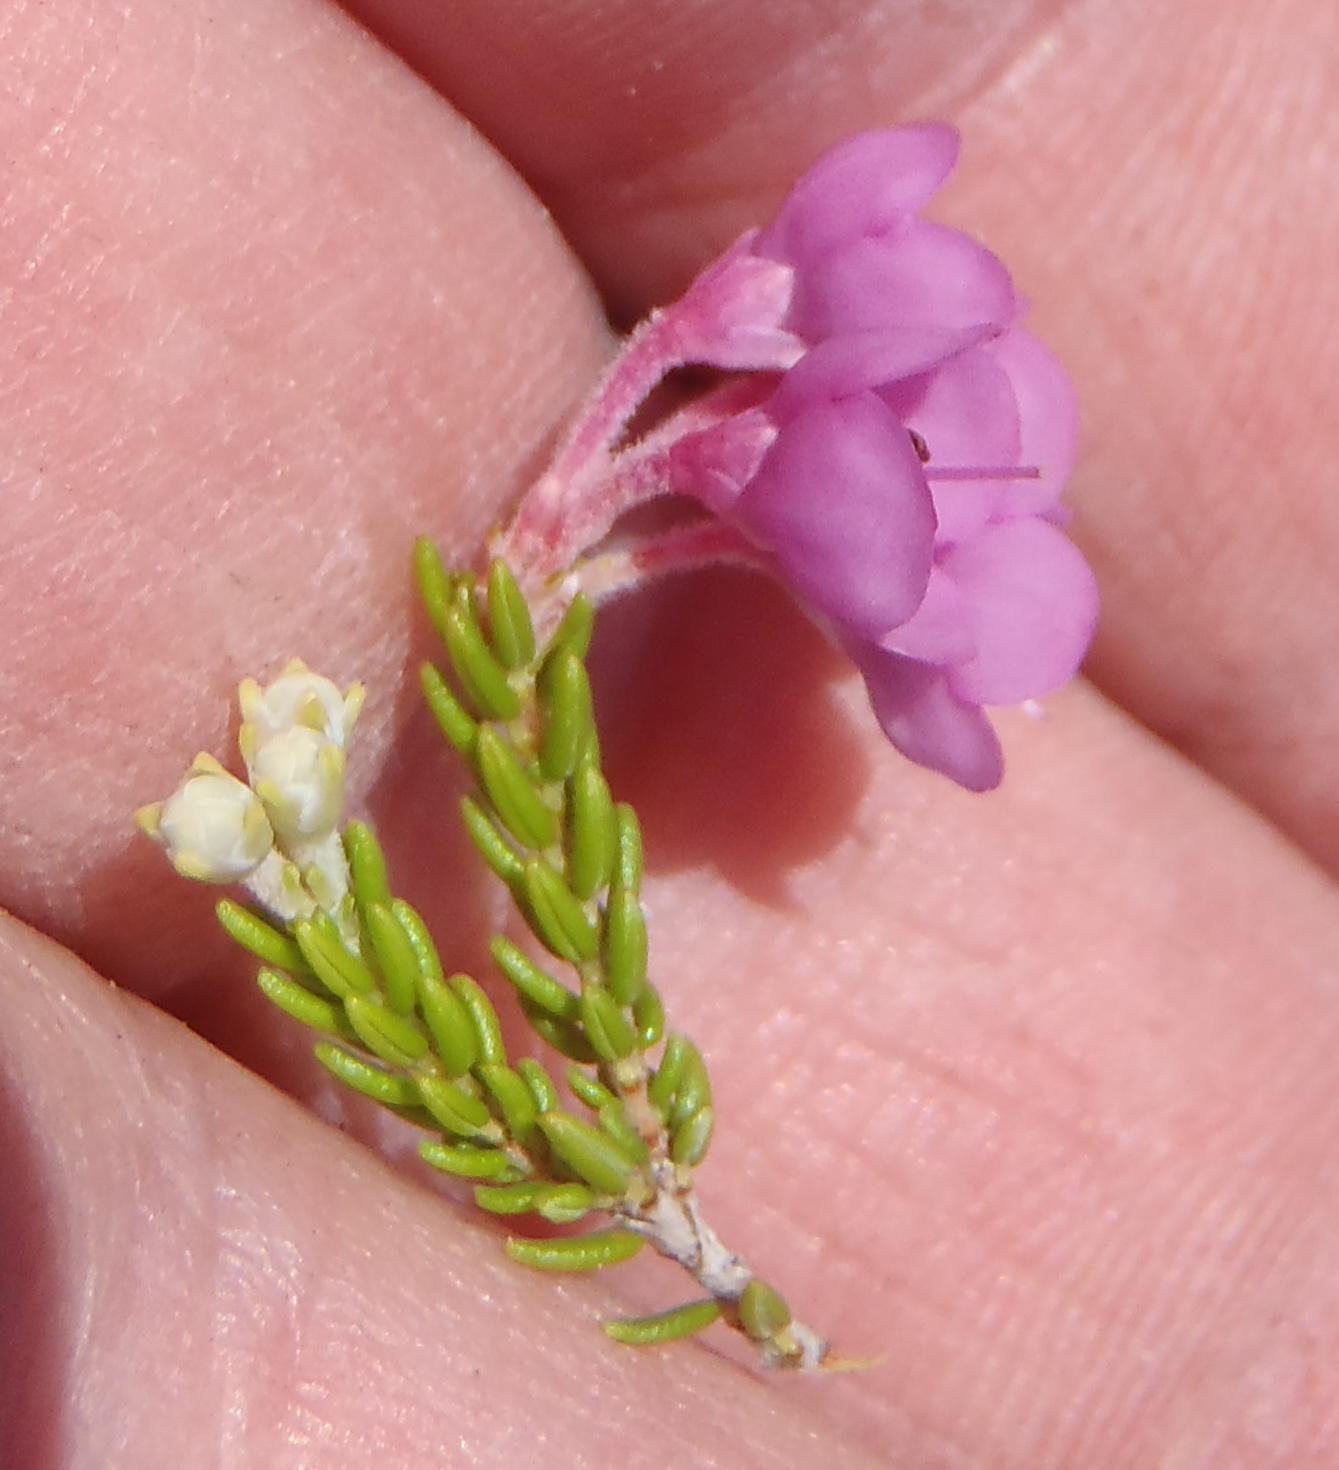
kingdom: Plantae
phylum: Tracheophyta
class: Magnoliopsida
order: Ericales
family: Ericaceae
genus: Erica
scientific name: Erica newdigatei
